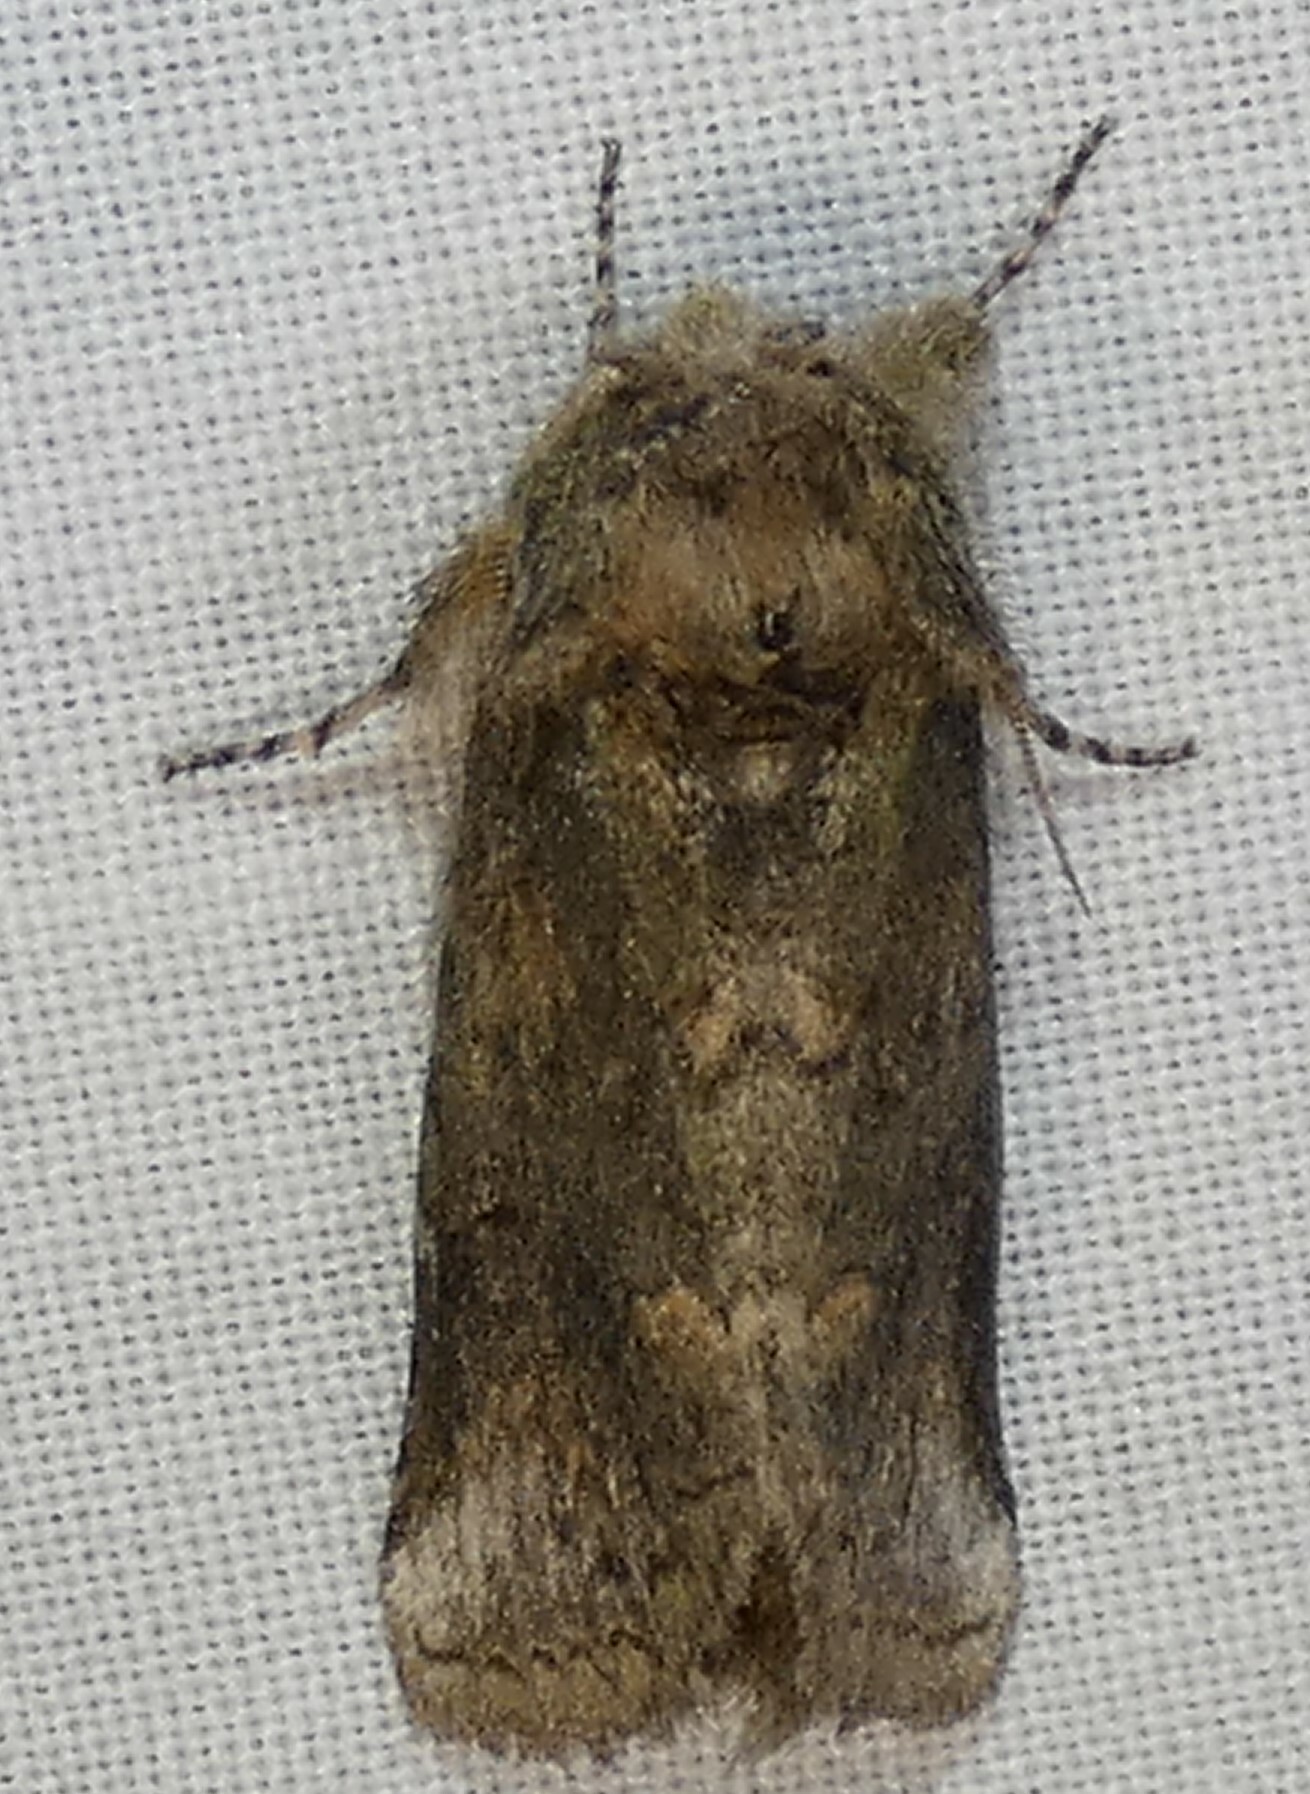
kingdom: Animalia
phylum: Arthropoda
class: Insecta
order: Lepidoptera
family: Notodontidae
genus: Rifargia
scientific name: Rifargia
